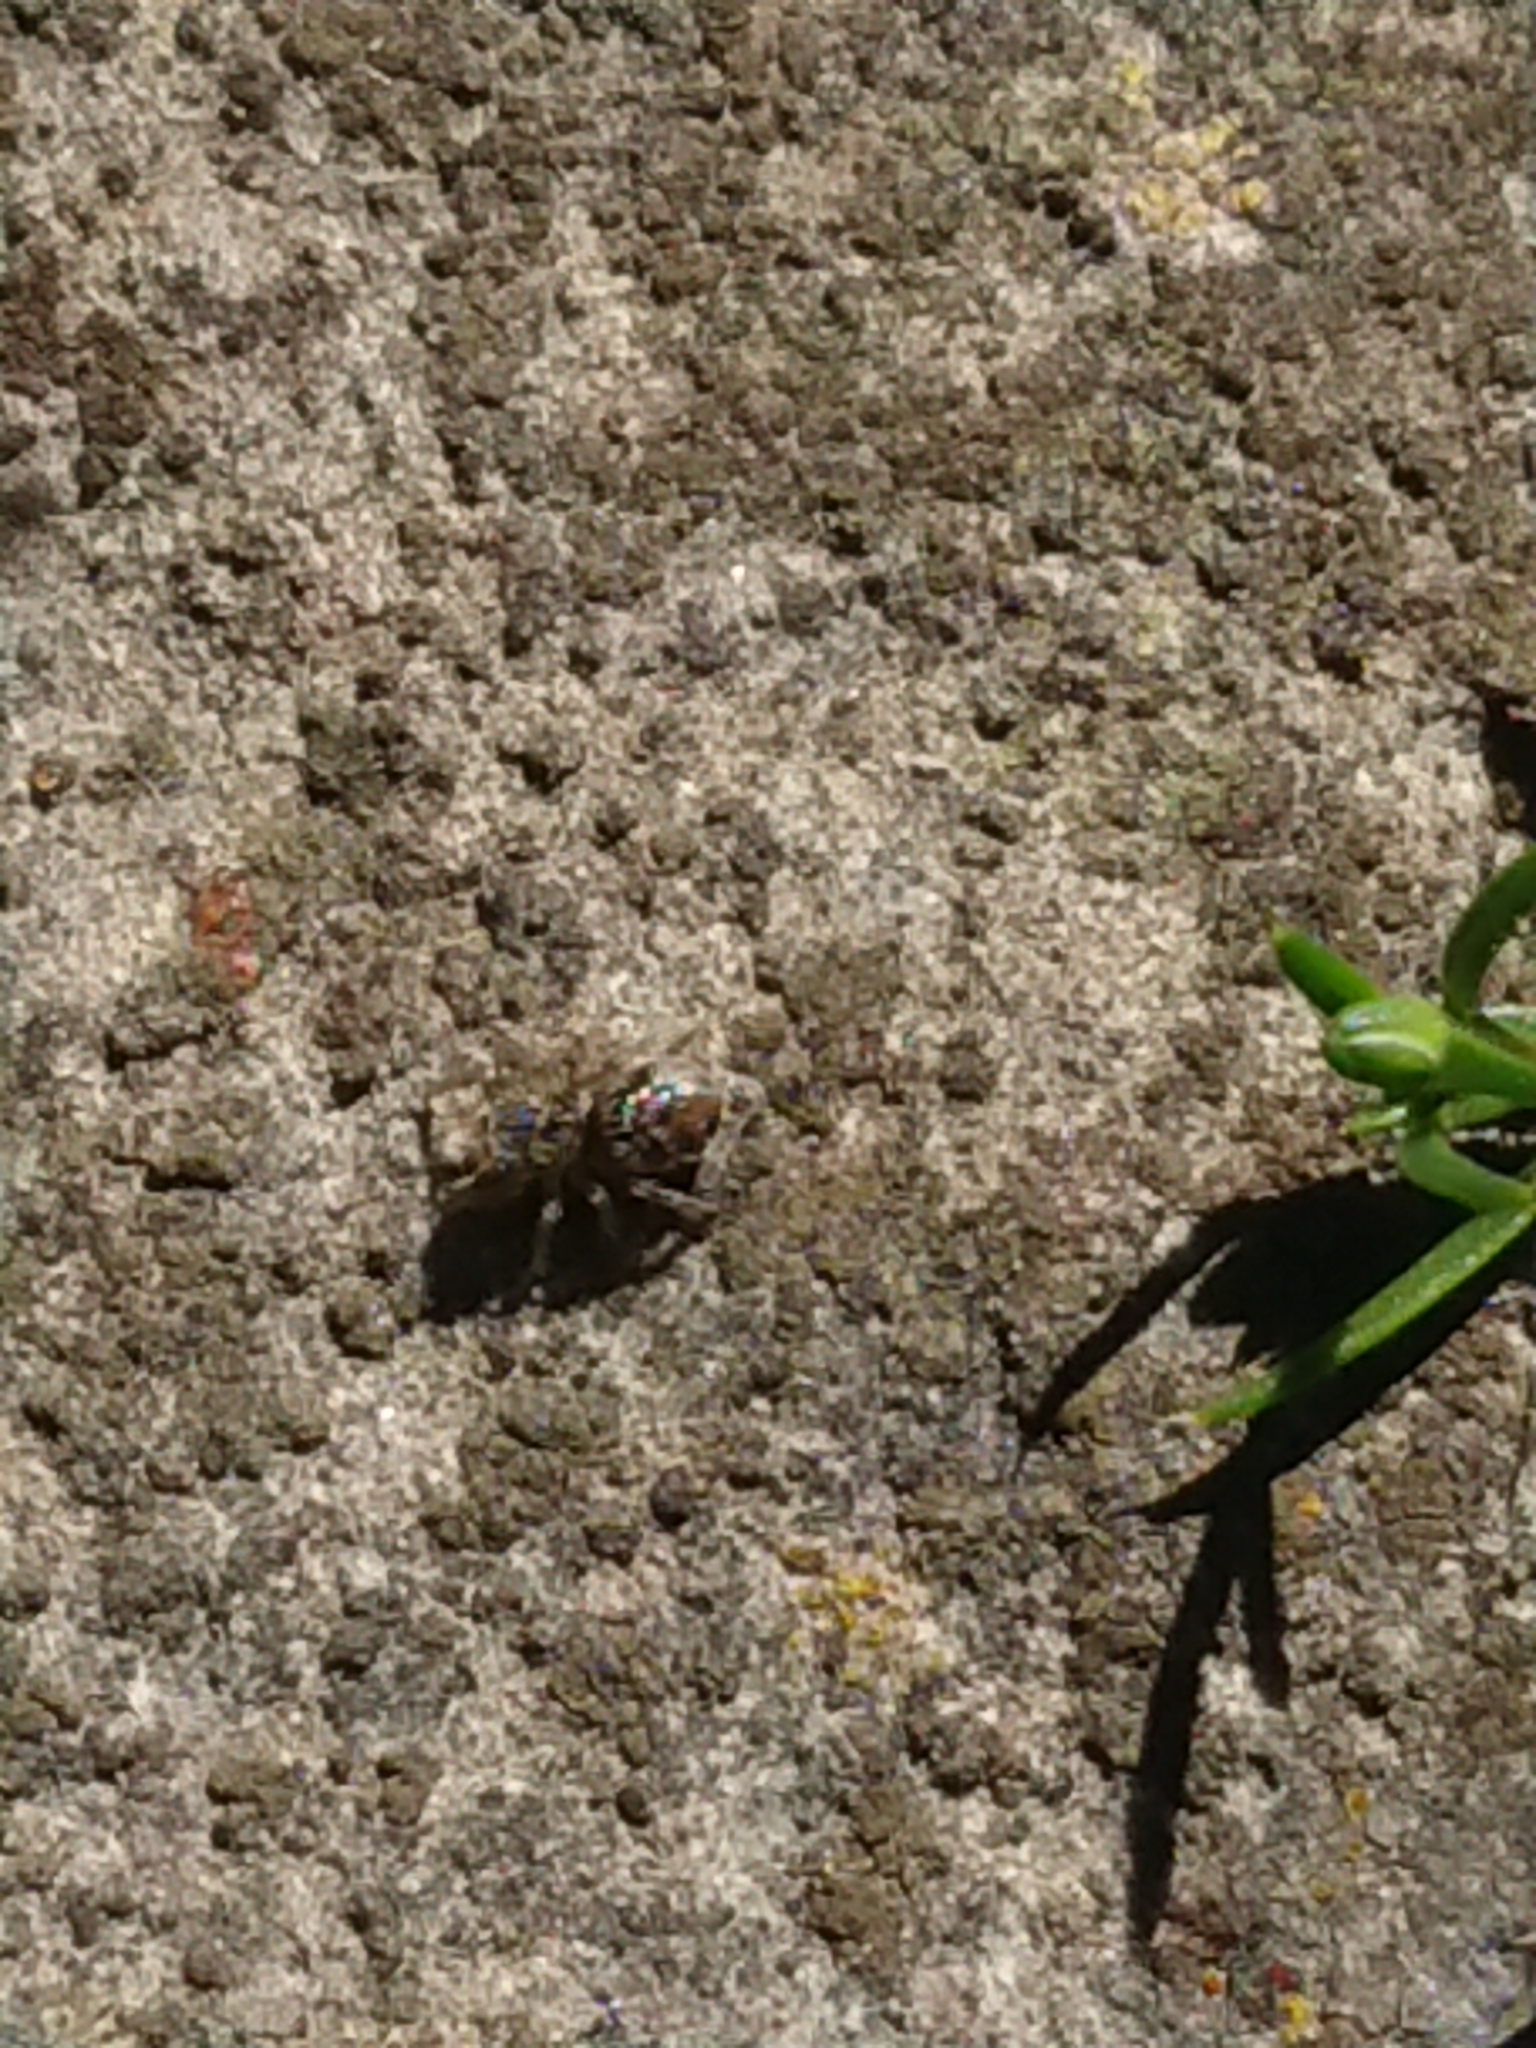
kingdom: Animalia
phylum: Arthropoda
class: Arachnida
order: Araneae
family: Salticidae
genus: Maratus
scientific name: Maratus griseus
